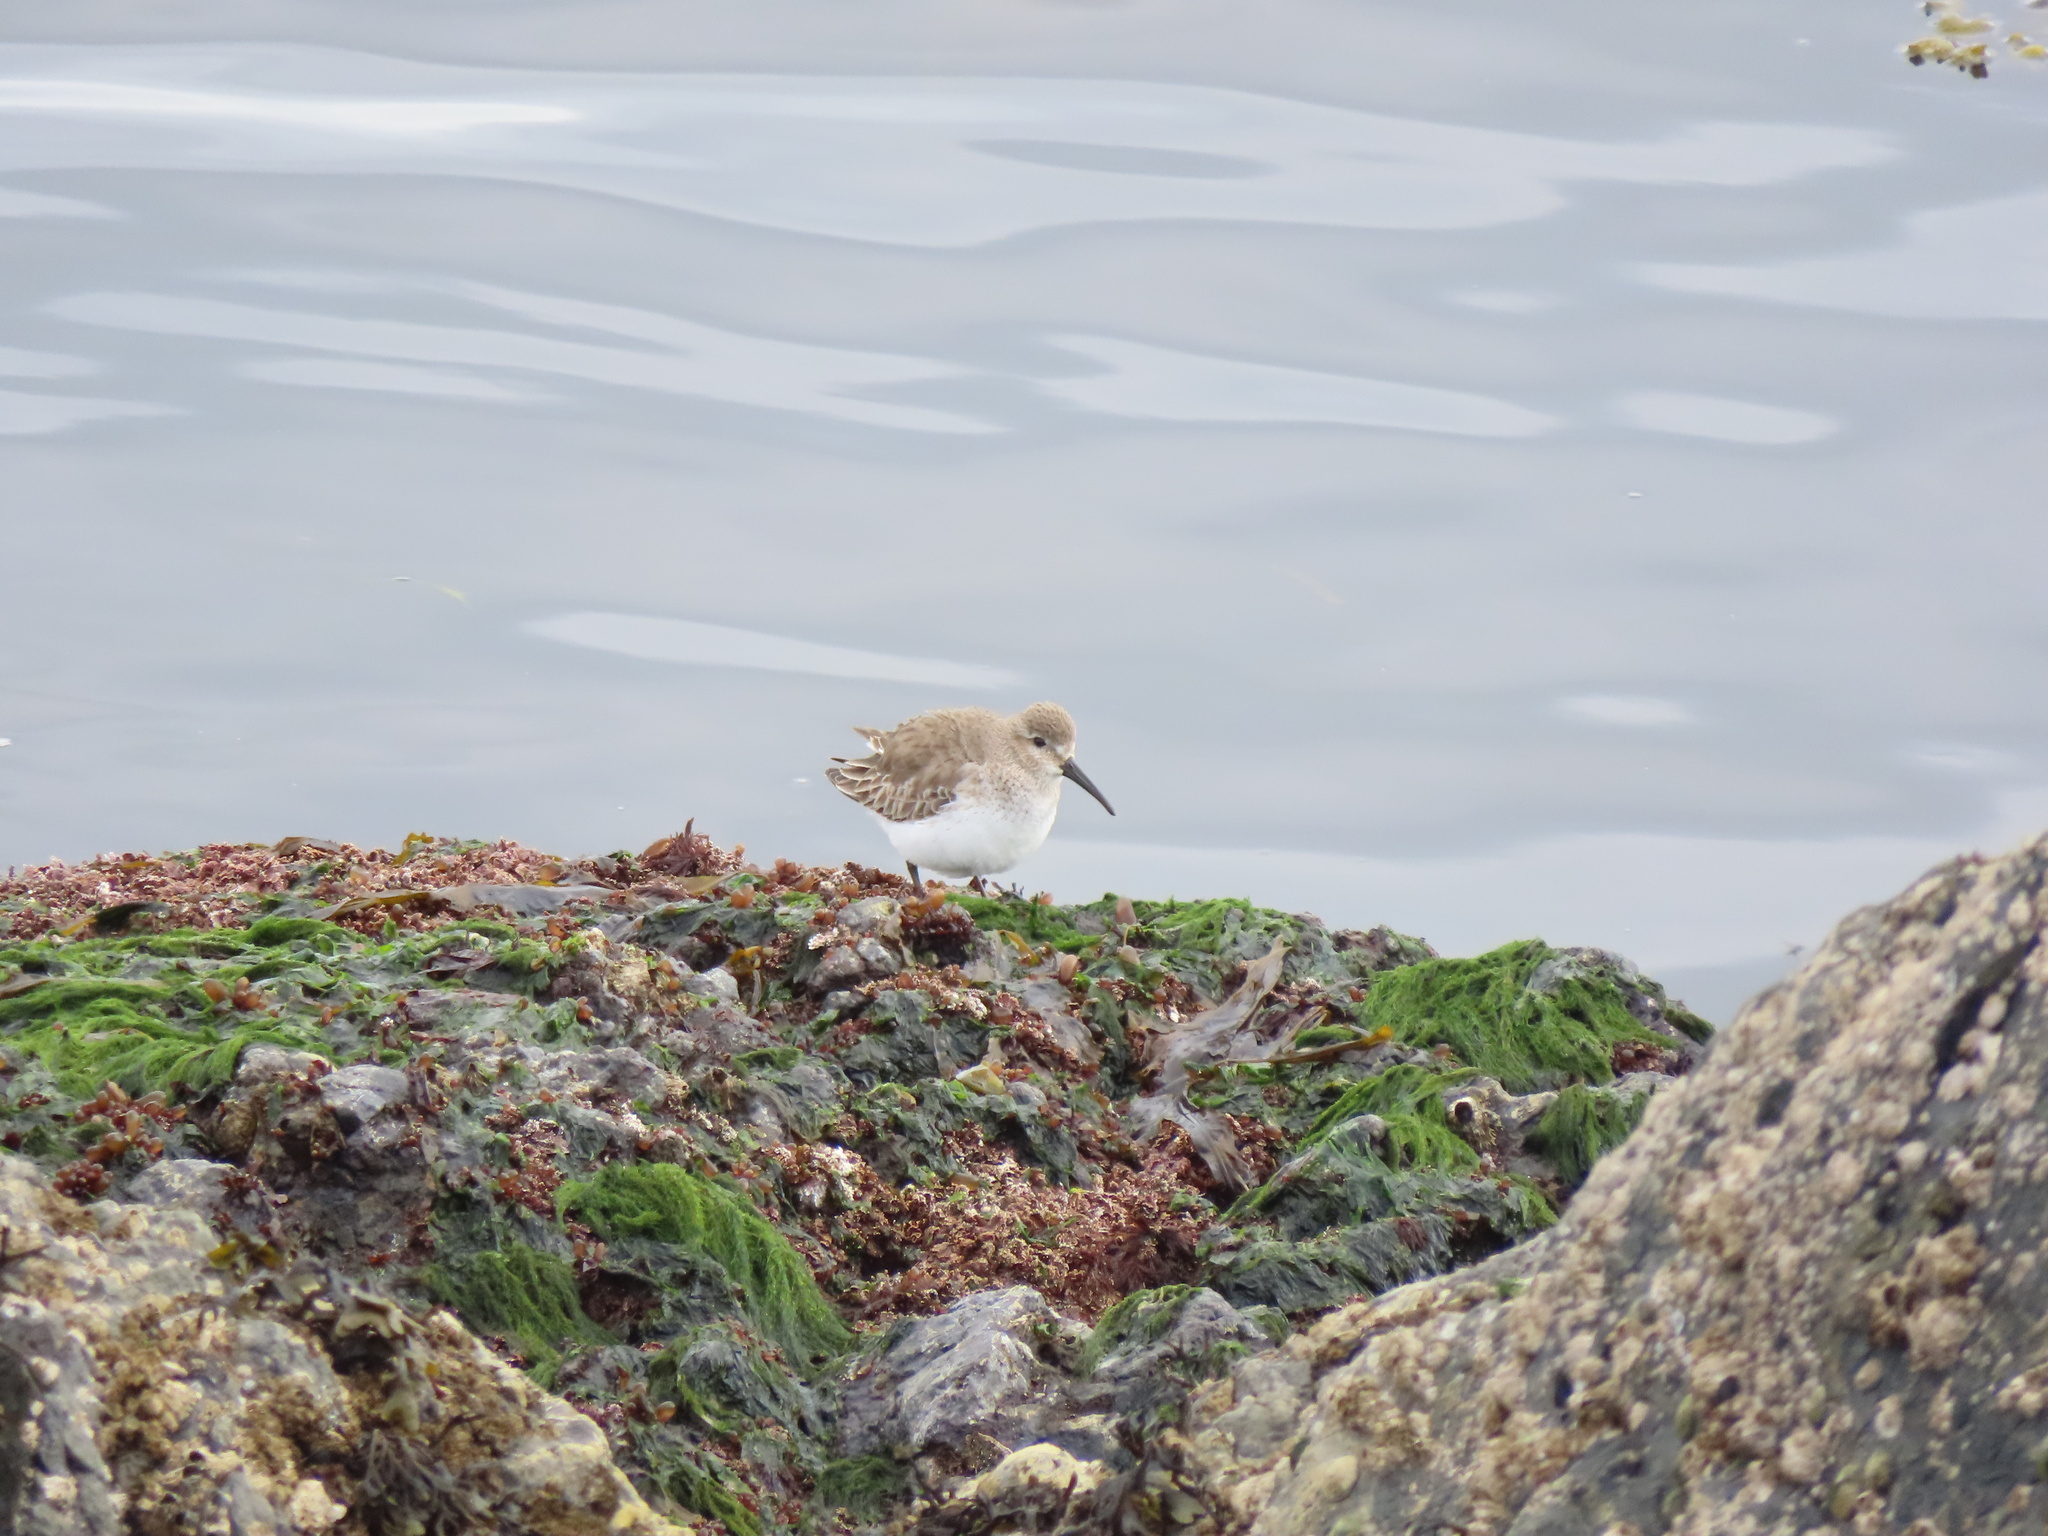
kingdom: Animalia
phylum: Chordata
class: Aves
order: Charadriiformes
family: Scolopacidae
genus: Calidris
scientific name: Calidris alpina
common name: Dunlin
